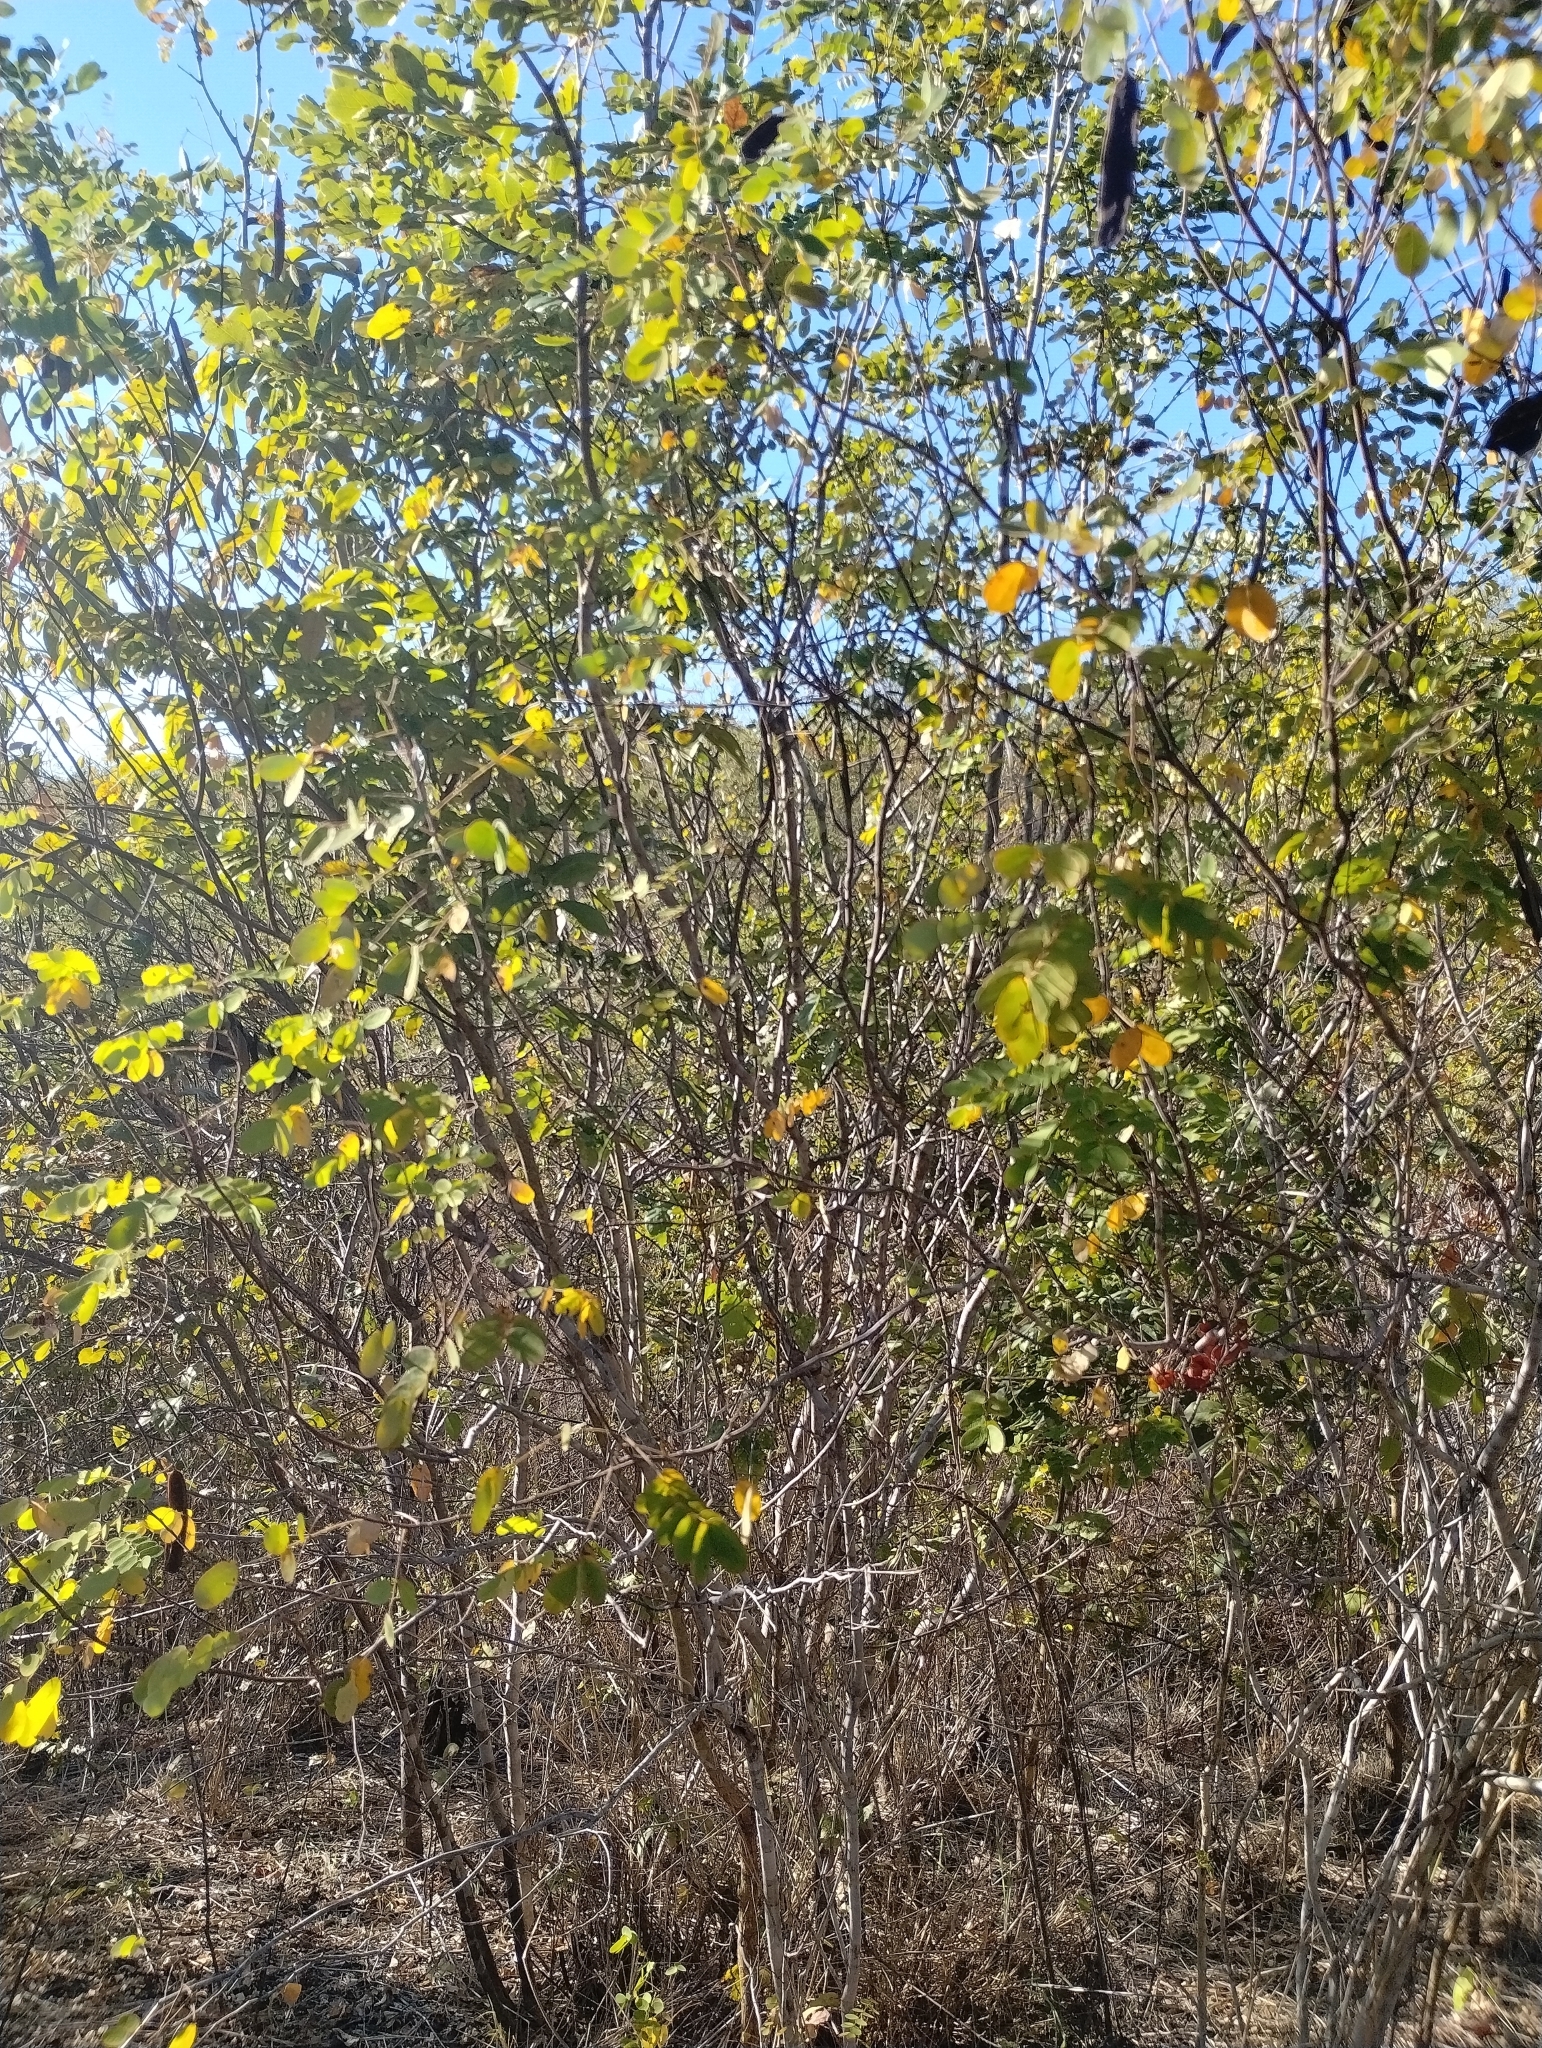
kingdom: Plantae
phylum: Tracheophyta
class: Magnoliopsida
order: Fabales
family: Fabaceae
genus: Senna
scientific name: Senna trachypus
